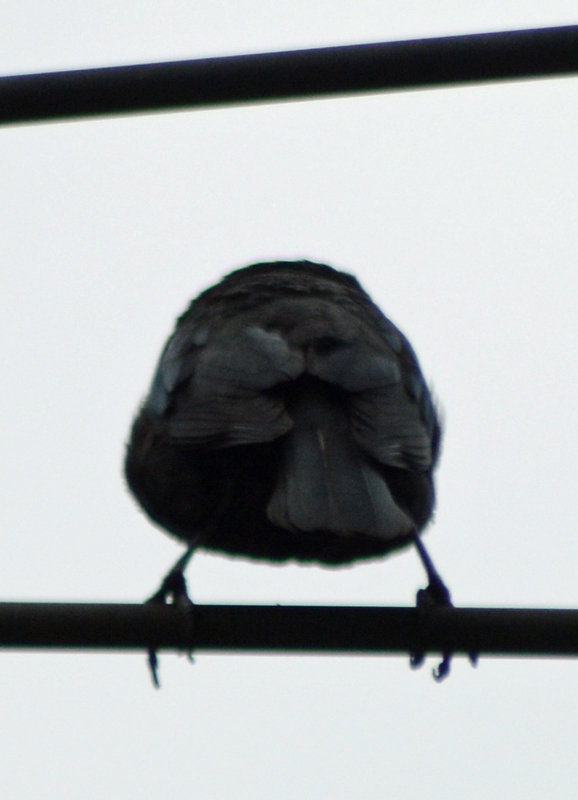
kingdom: Animalia
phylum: Chordata
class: Aves
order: Passeriformes
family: Icteridae
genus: Molothrus
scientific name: Molothrus aeneus
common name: Bronzed cowbird
